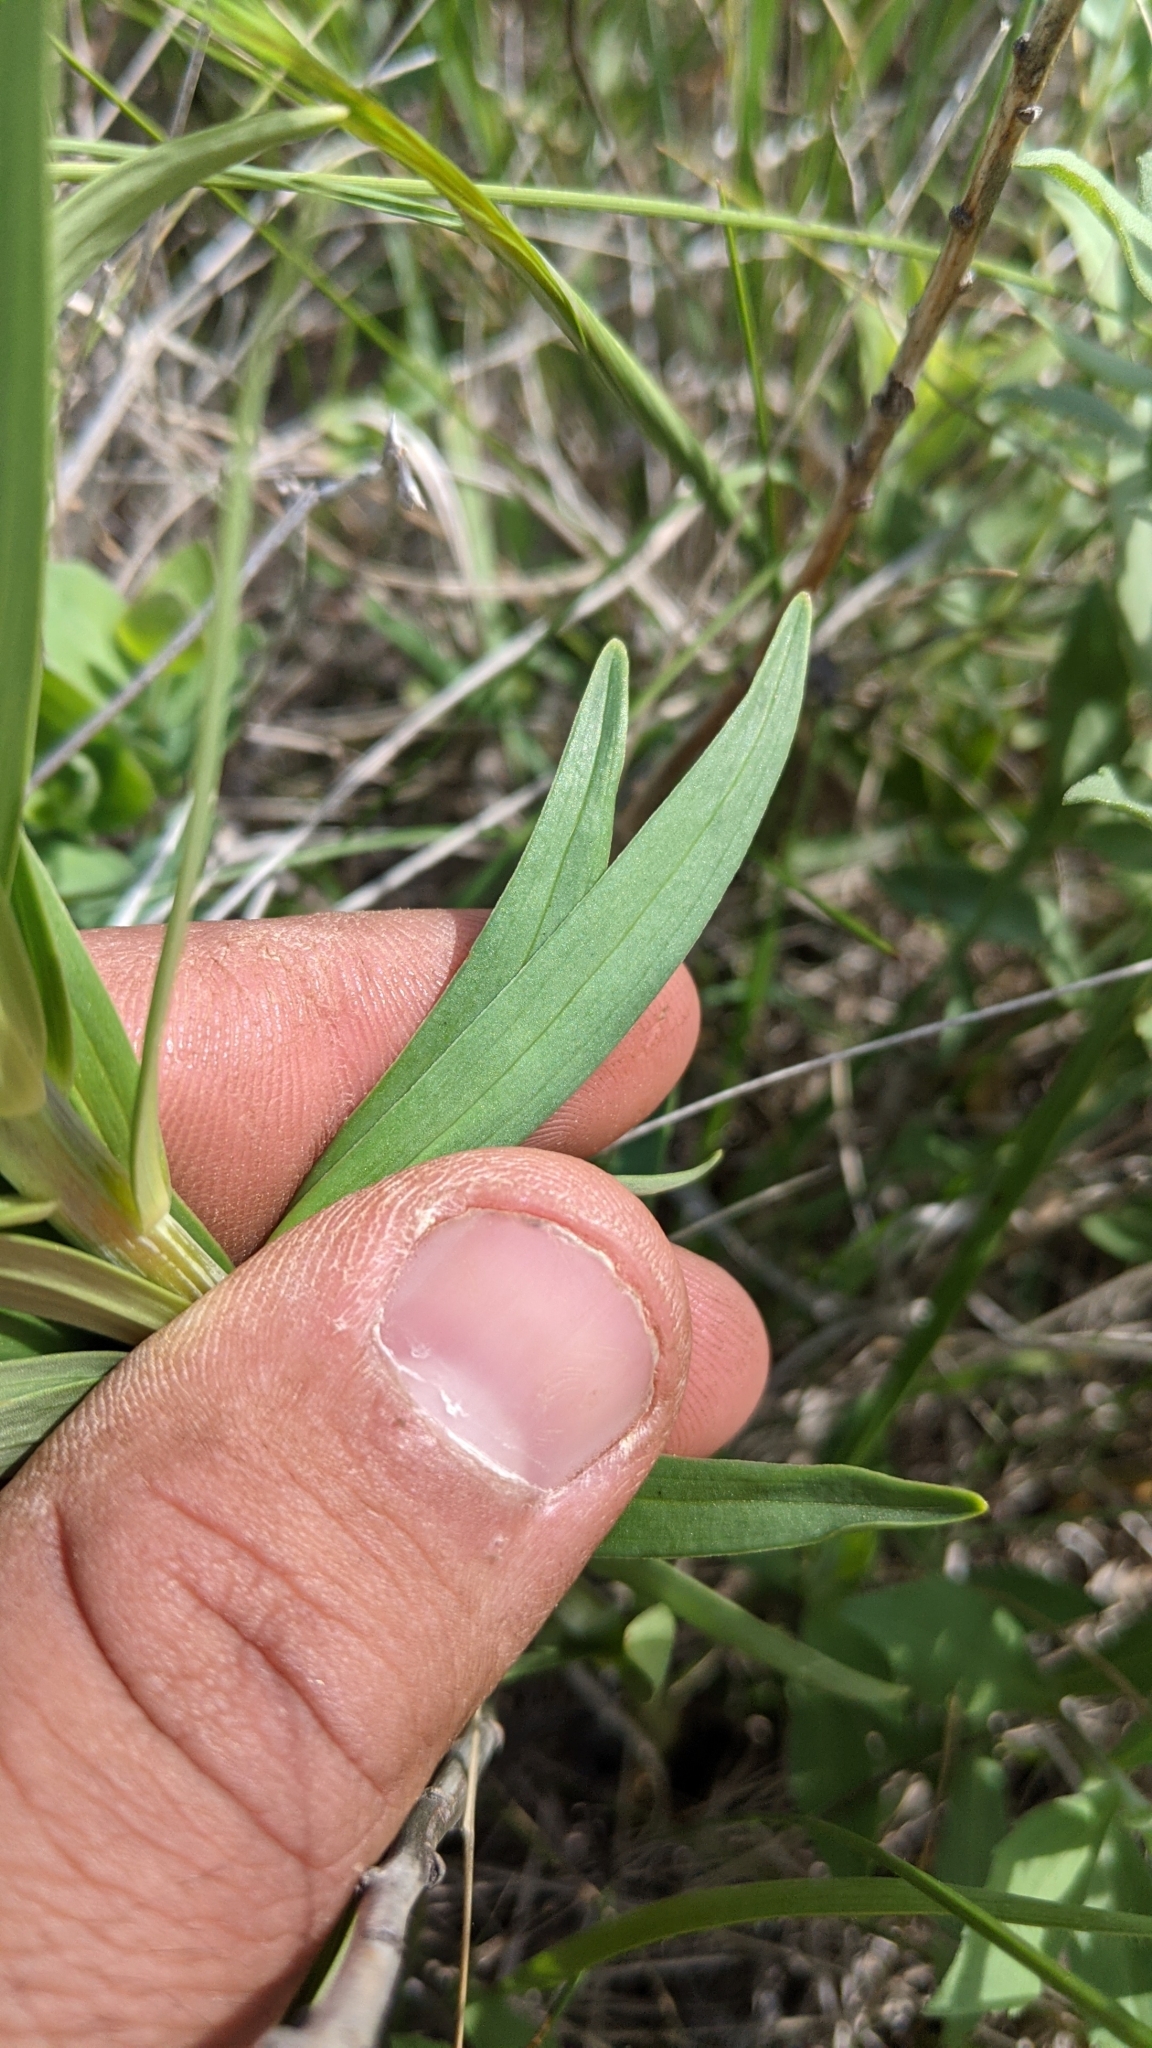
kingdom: Plantae
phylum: Tracheophyta
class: Liliopsida
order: Liliales
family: Liliaceae
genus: Lilium
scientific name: Lilium philadelphicum
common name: Red lily
